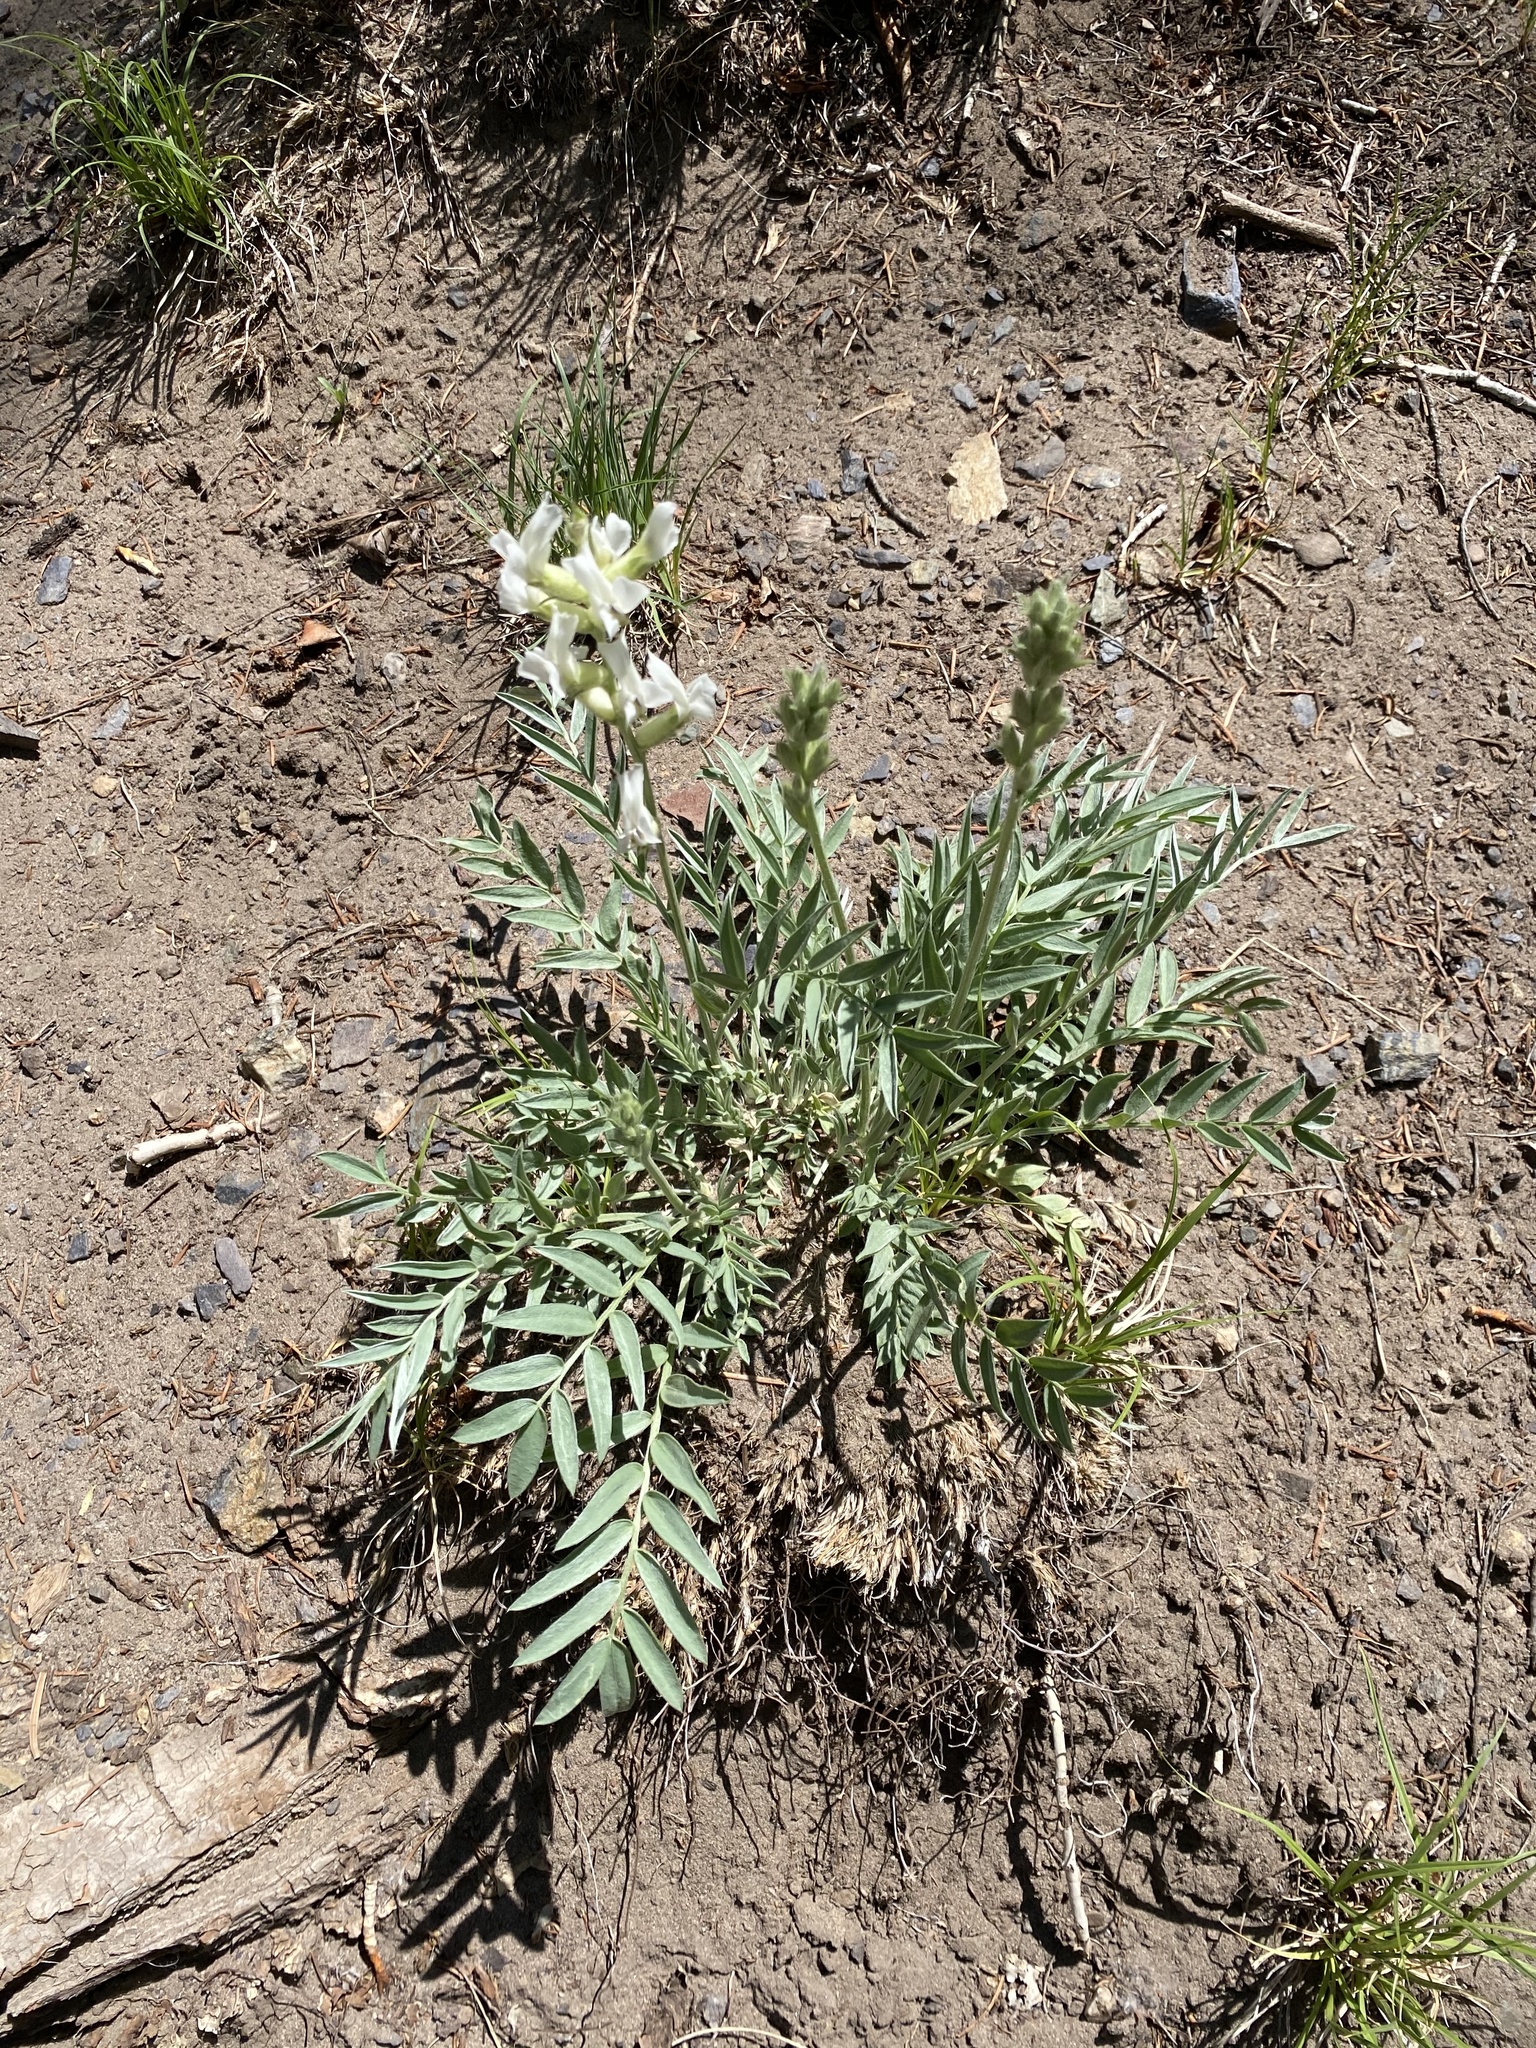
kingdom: Plantae
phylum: Tracheophyta
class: Magnoliopsida
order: Fabales
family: Fabaceae
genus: Oxytropis
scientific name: Oxytropis sericea
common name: Silky locoweed
